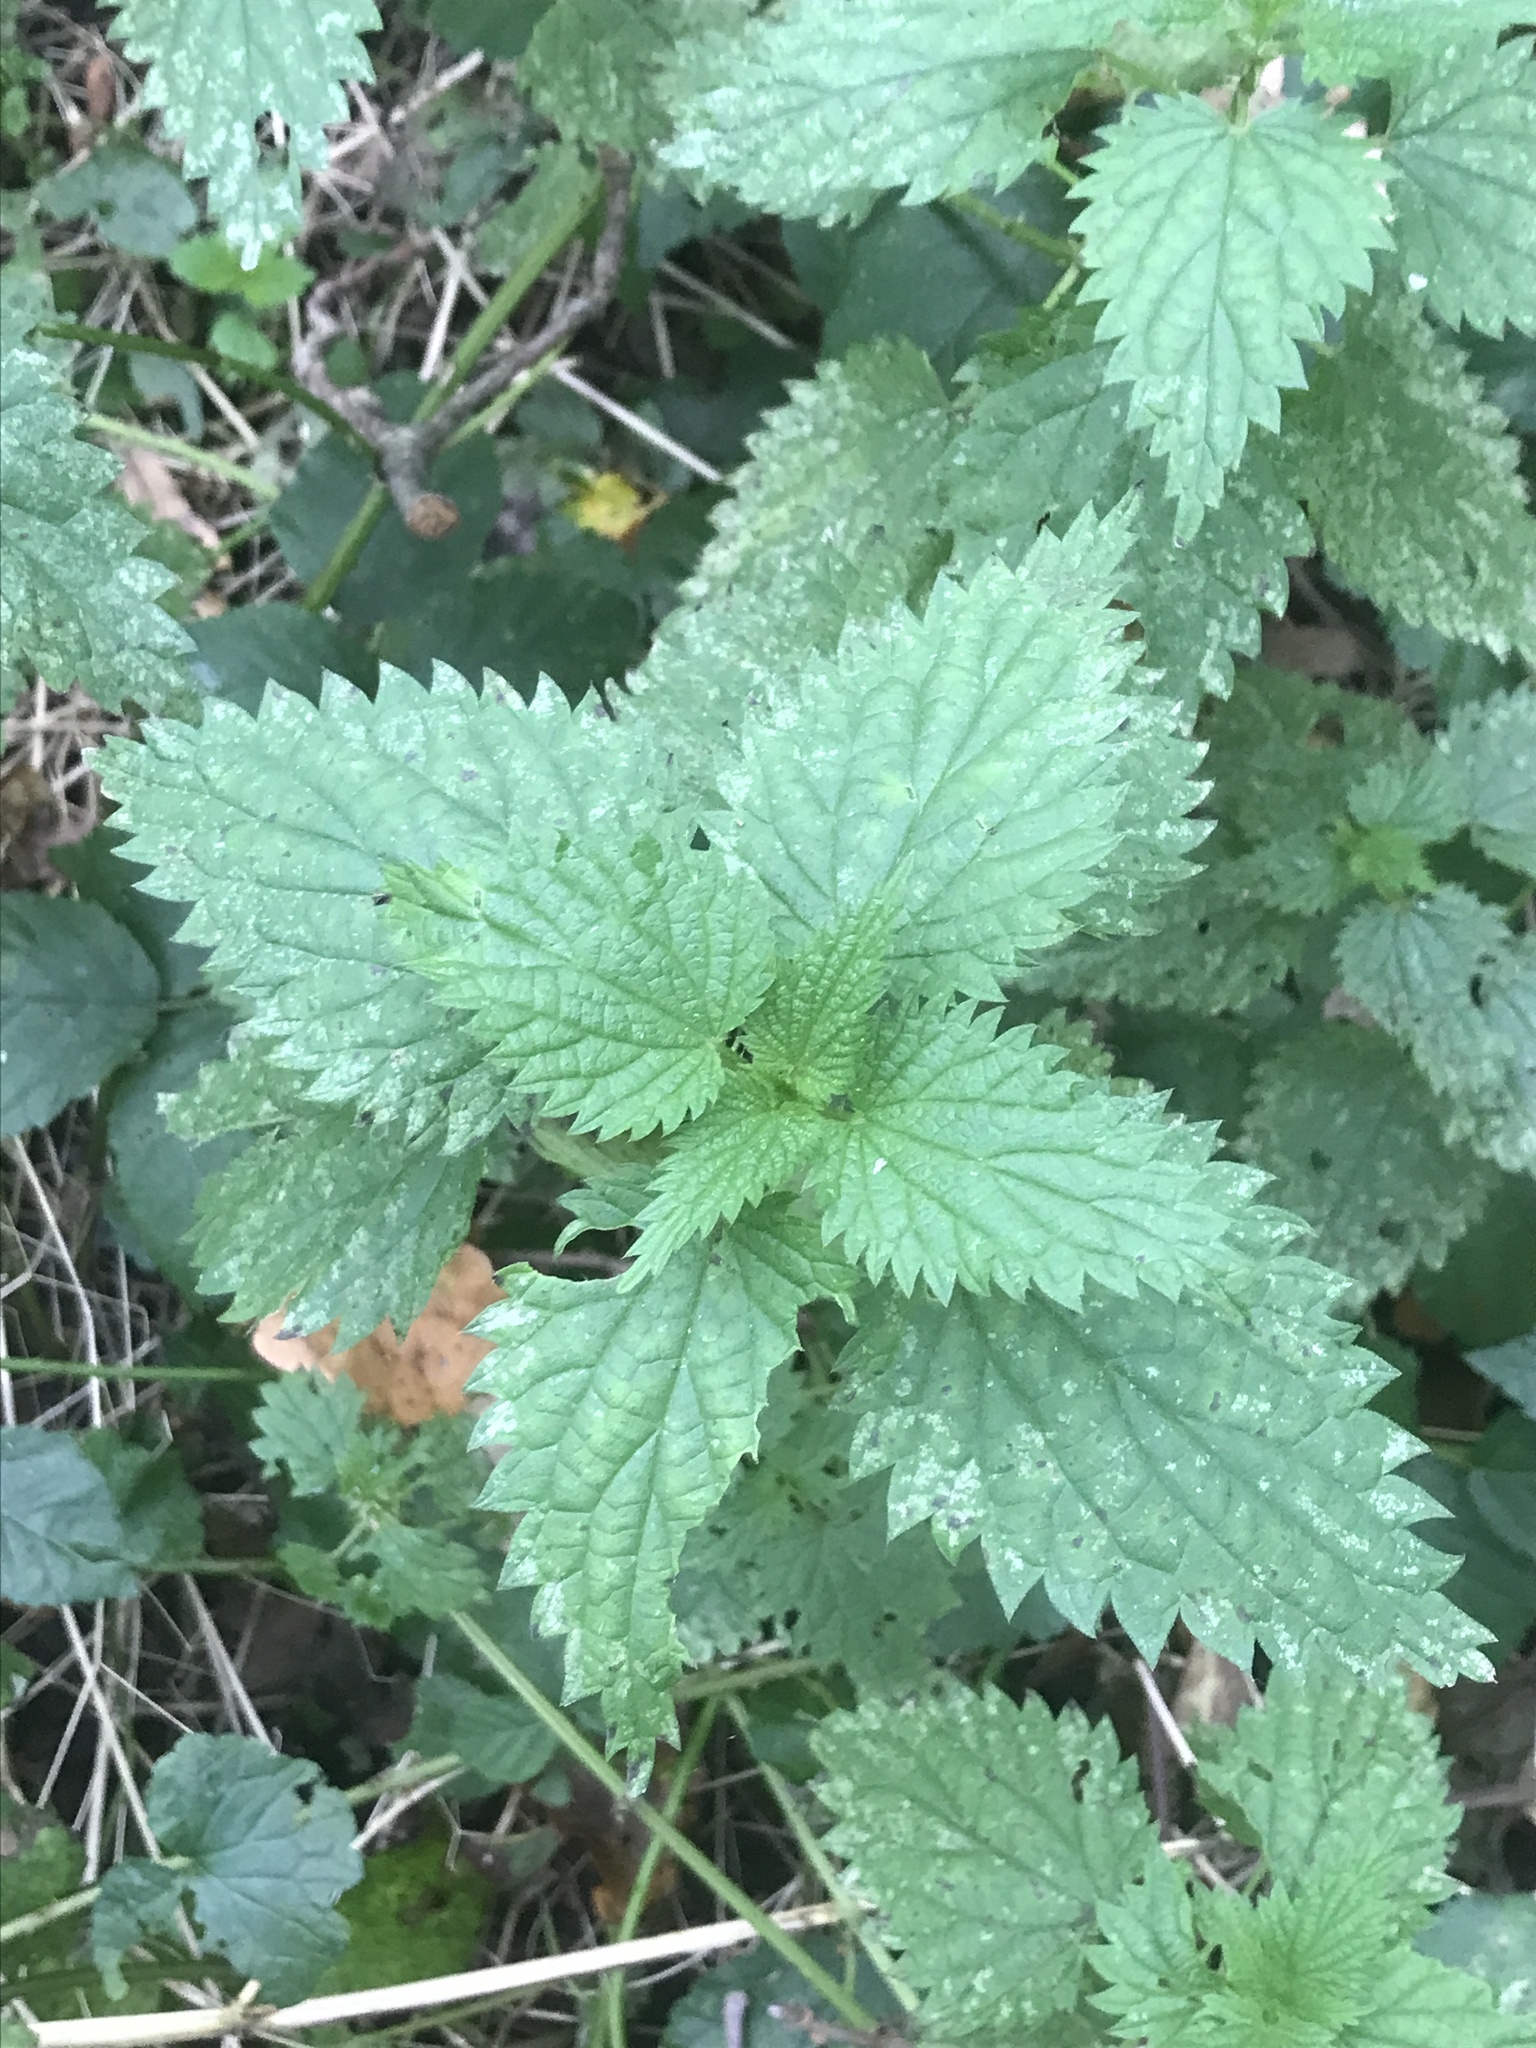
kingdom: Plantae
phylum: Tracheophyta
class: Magnoliopsida
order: Rosales
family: Urticaceae
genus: Urtica
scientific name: Urtica dioica
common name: Common nettle
